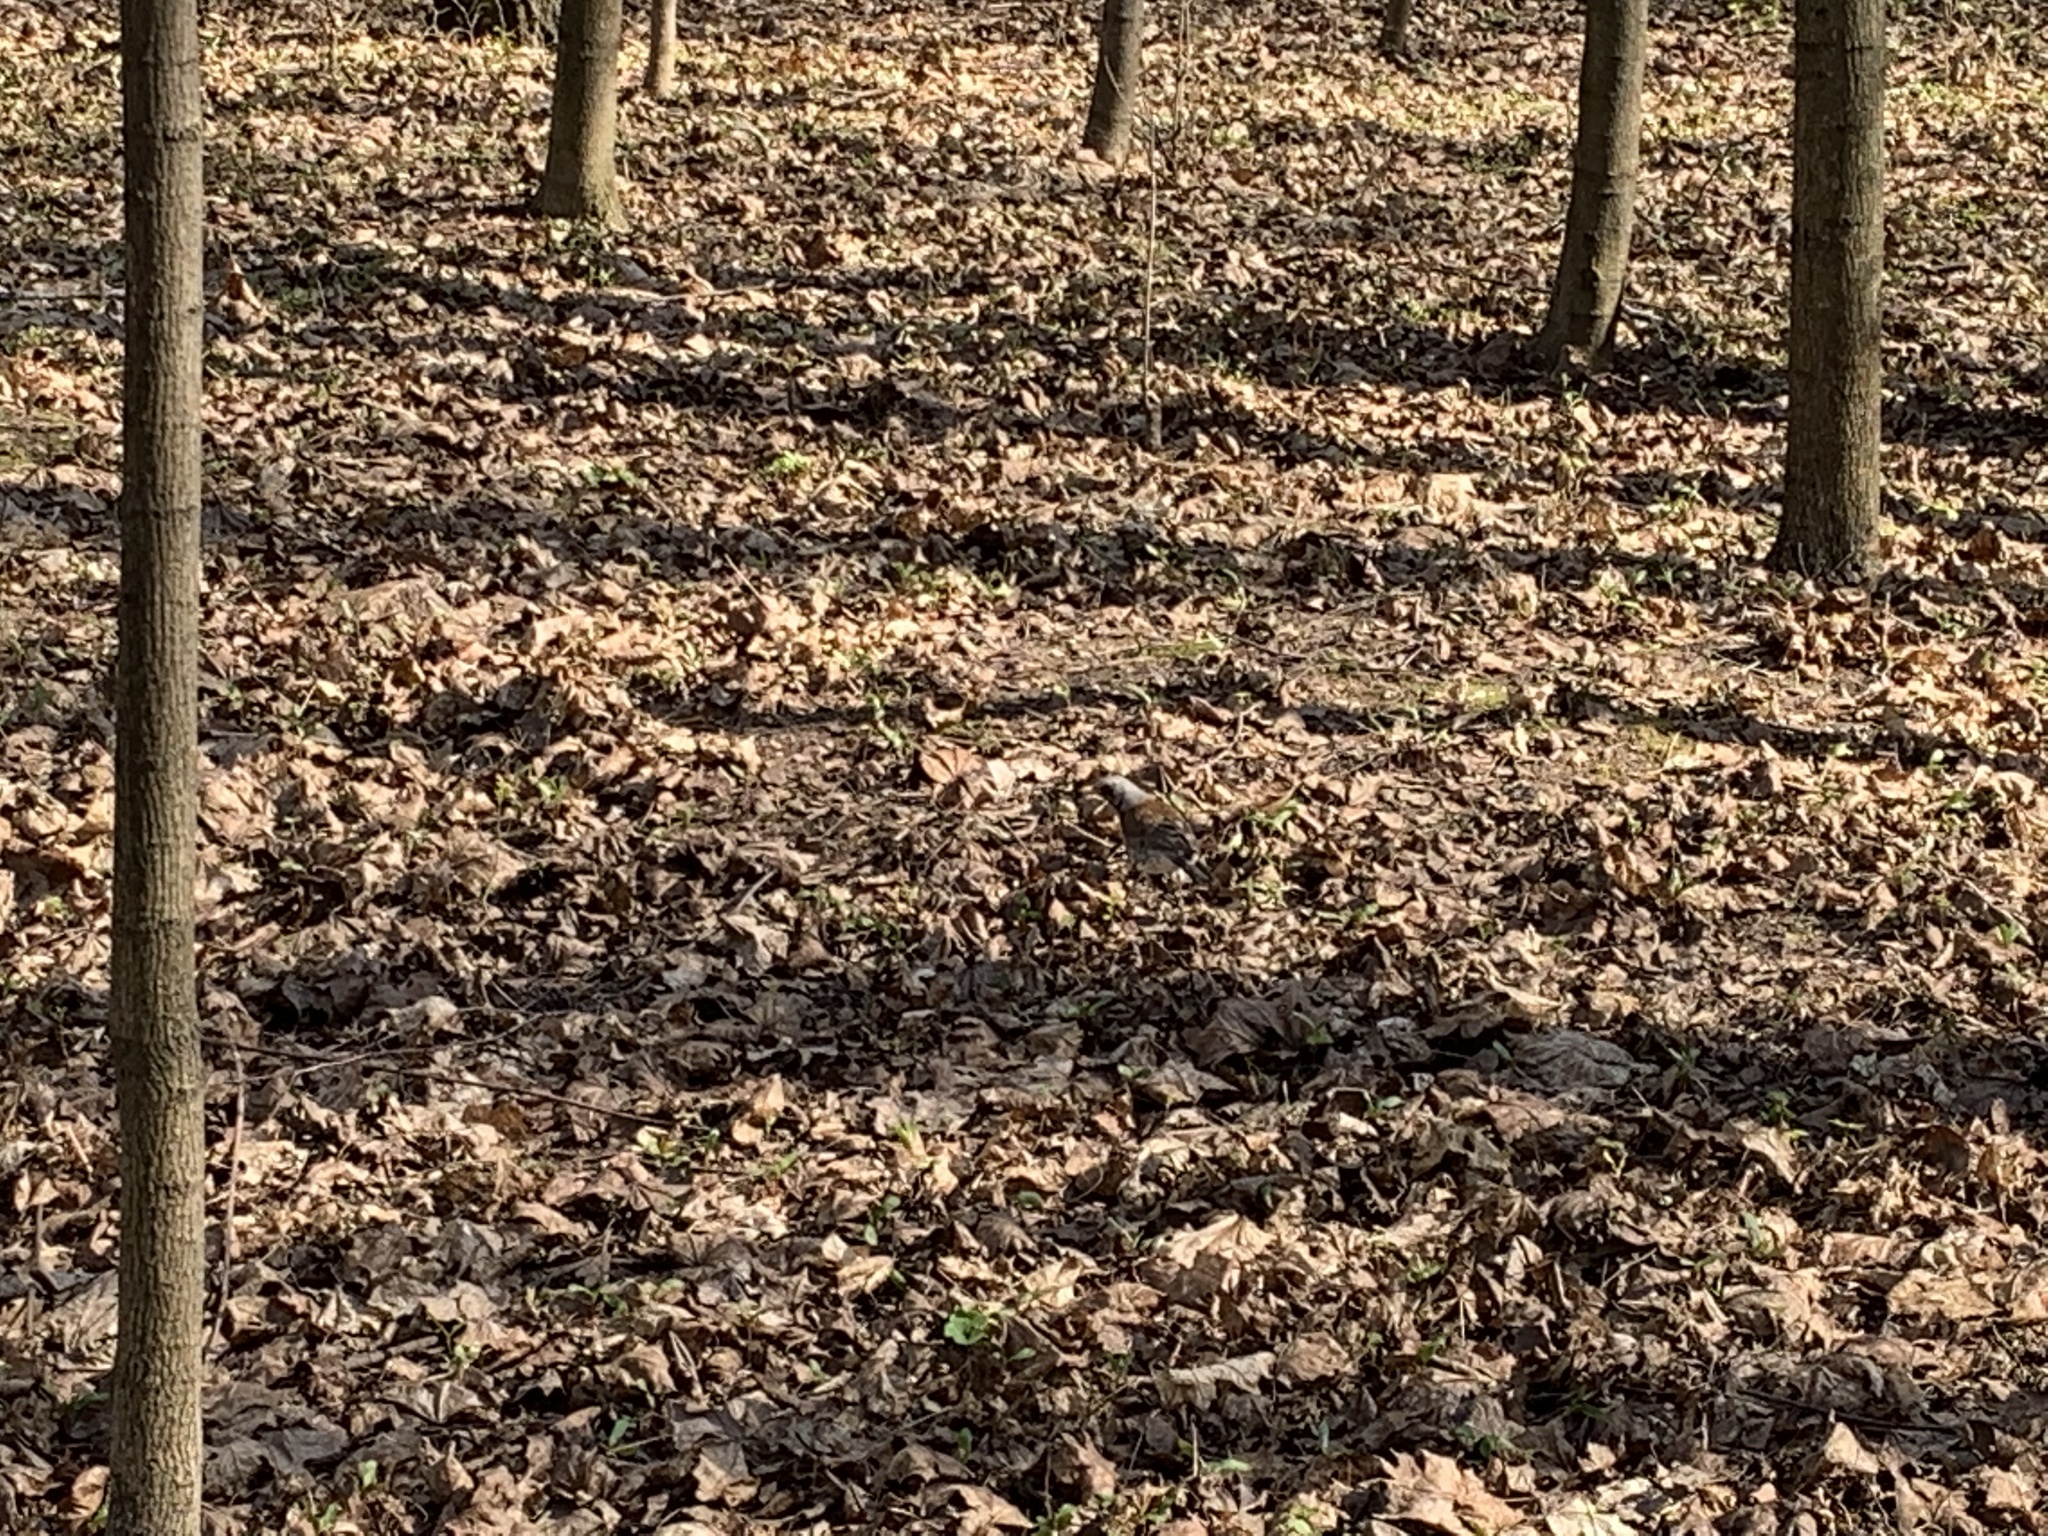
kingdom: Animalia
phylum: Chordata
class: Aves
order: Passeriformes
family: Turdidae
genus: Turdus
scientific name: Turdus pilaris
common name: Fieldfare
